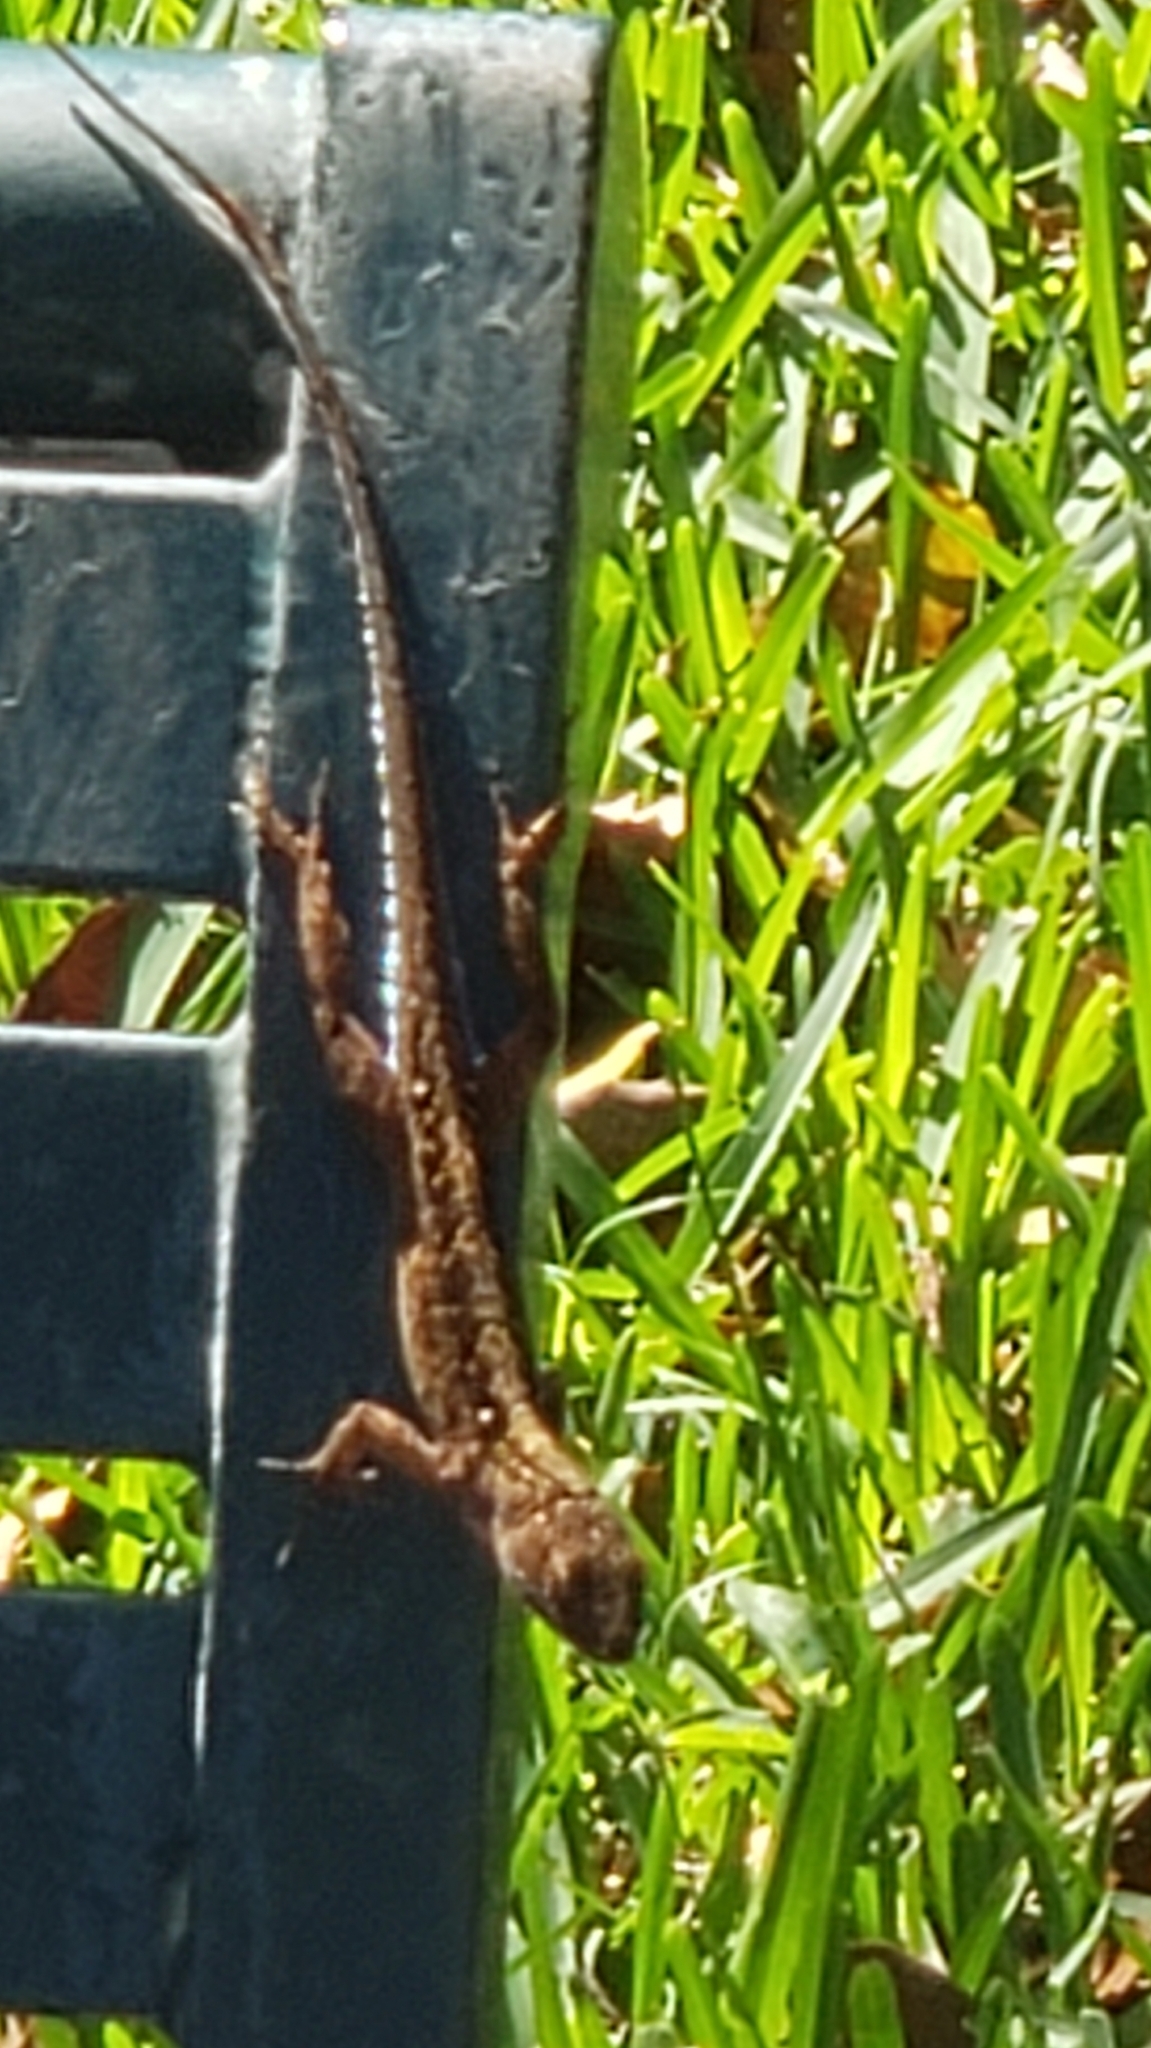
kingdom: Animalia
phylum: Chordata
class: Squamata
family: Dactyloidae
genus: Anolis
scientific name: Anolis sagrei
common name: Brown anole
